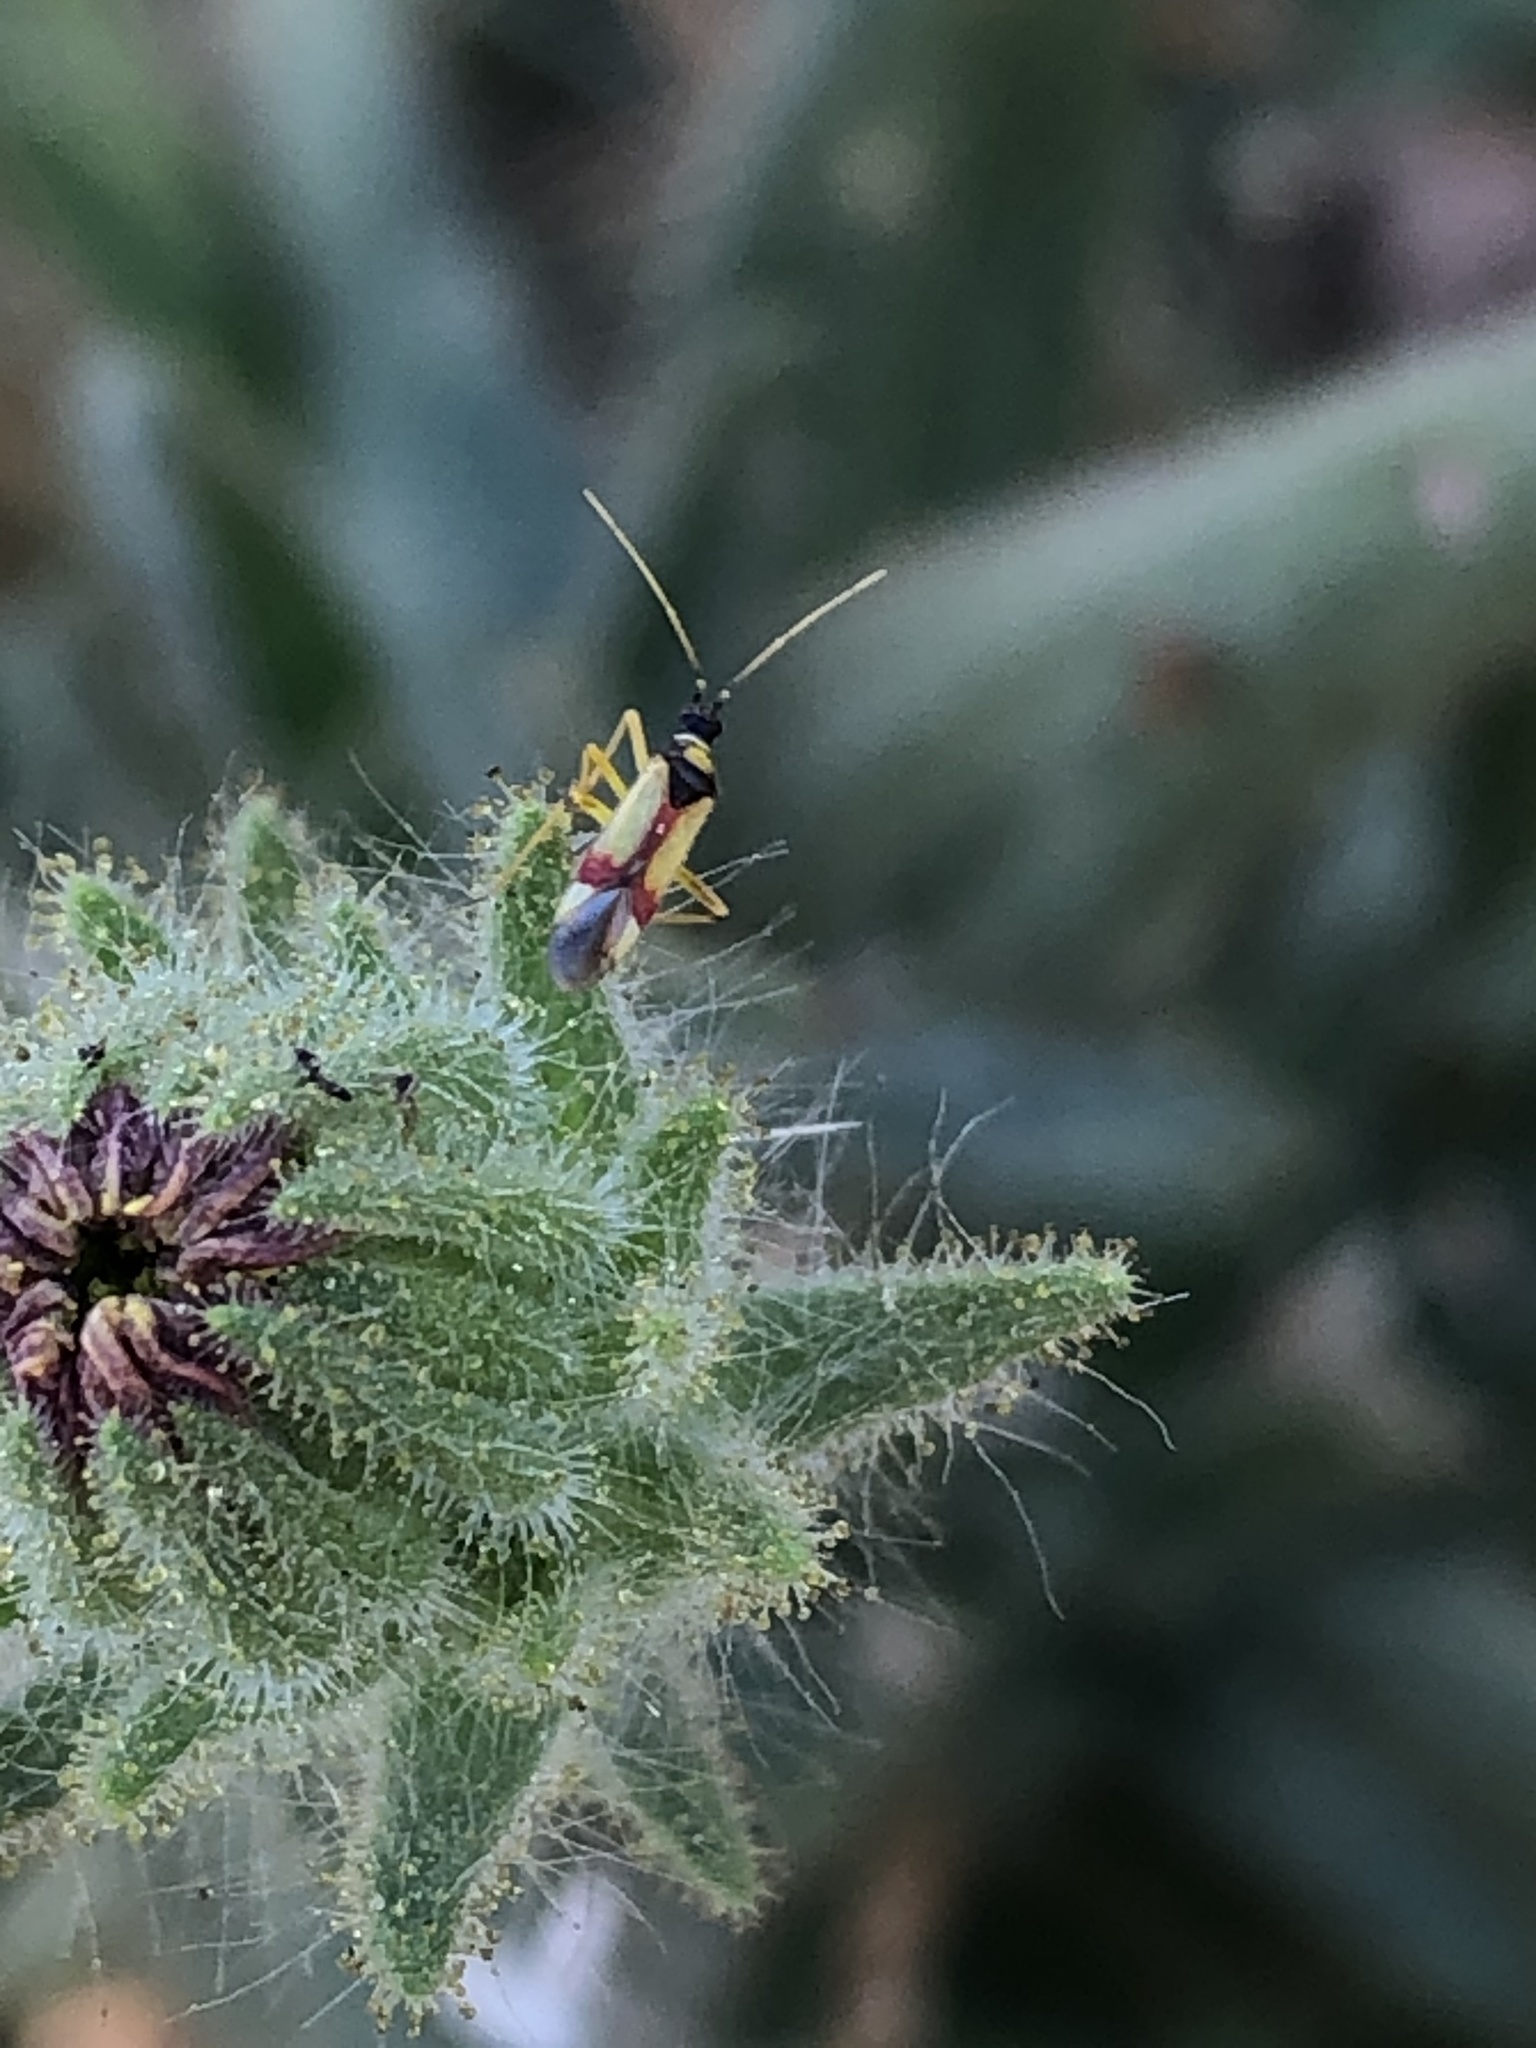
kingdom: Animalia
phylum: Arthropoda
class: Insecta
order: Hemiptera
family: Miridae
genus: Tupiocoris
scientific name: Tupiocoris californicus
